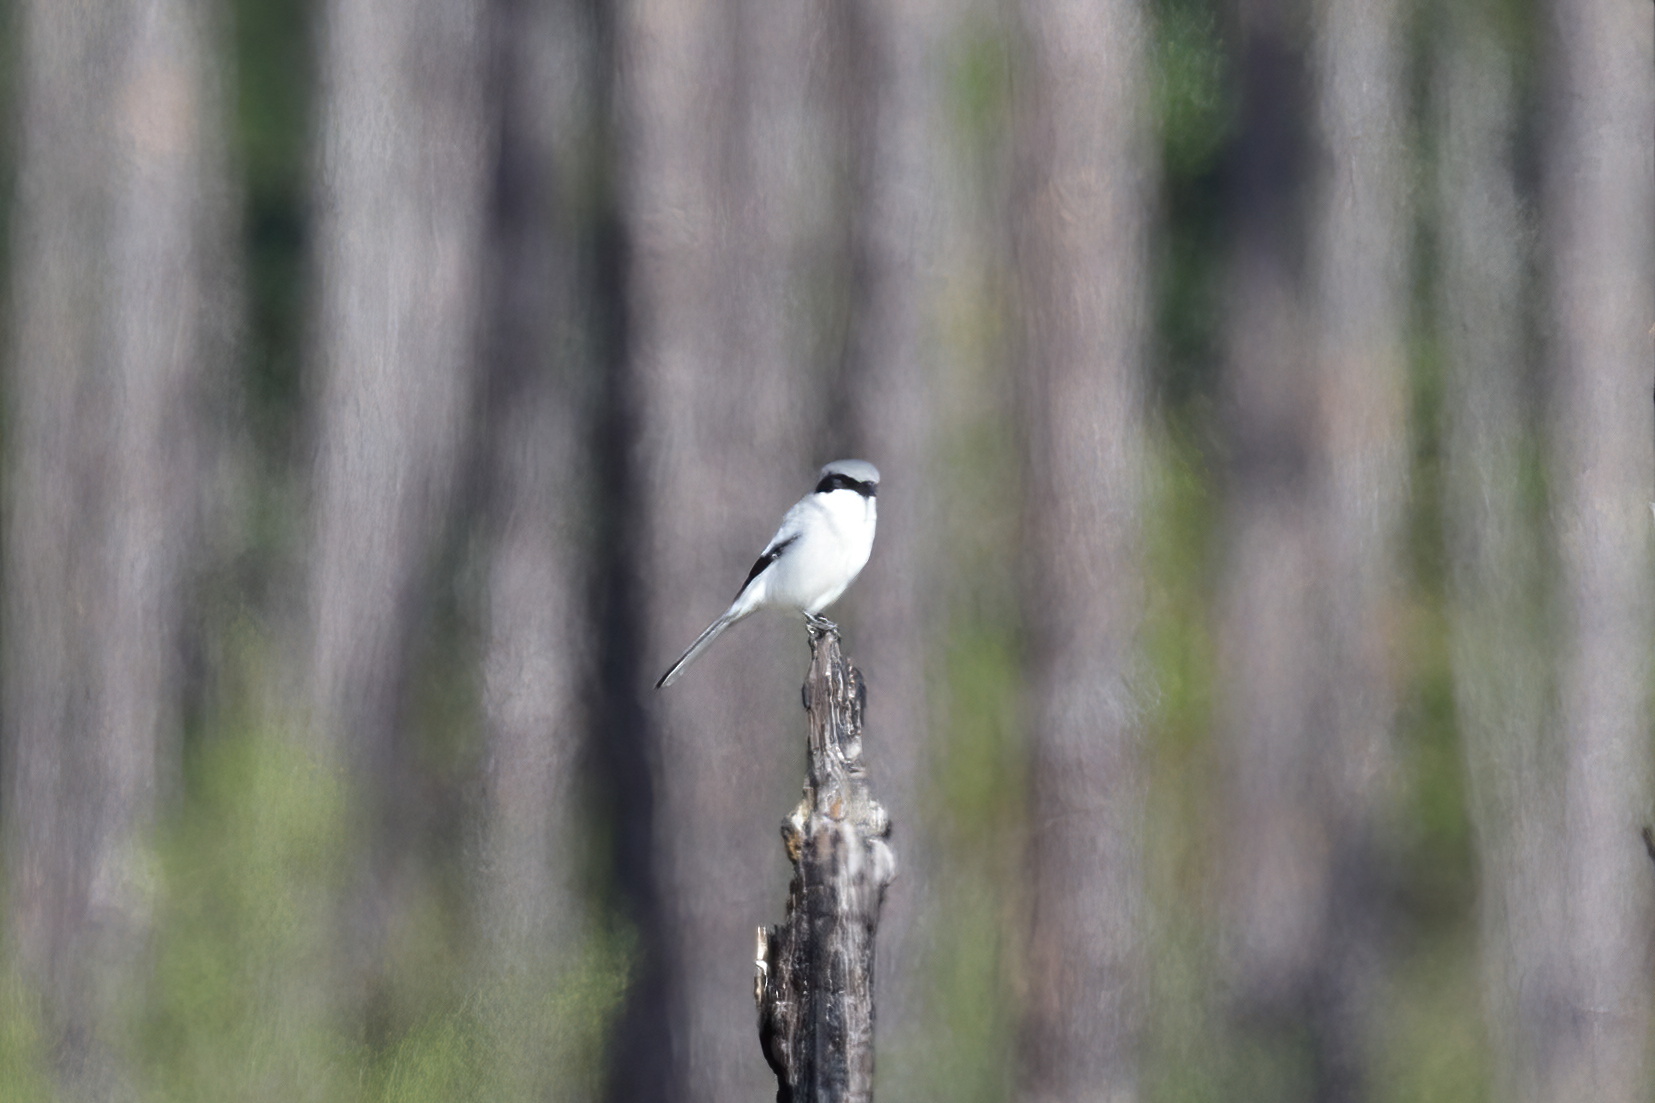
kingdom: Animalia
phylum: Chordata
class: Aves
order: Passeriformes
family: Laniidae
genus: Lanius
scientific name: Lanius ludovicianus
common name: Loggerhead shrike
